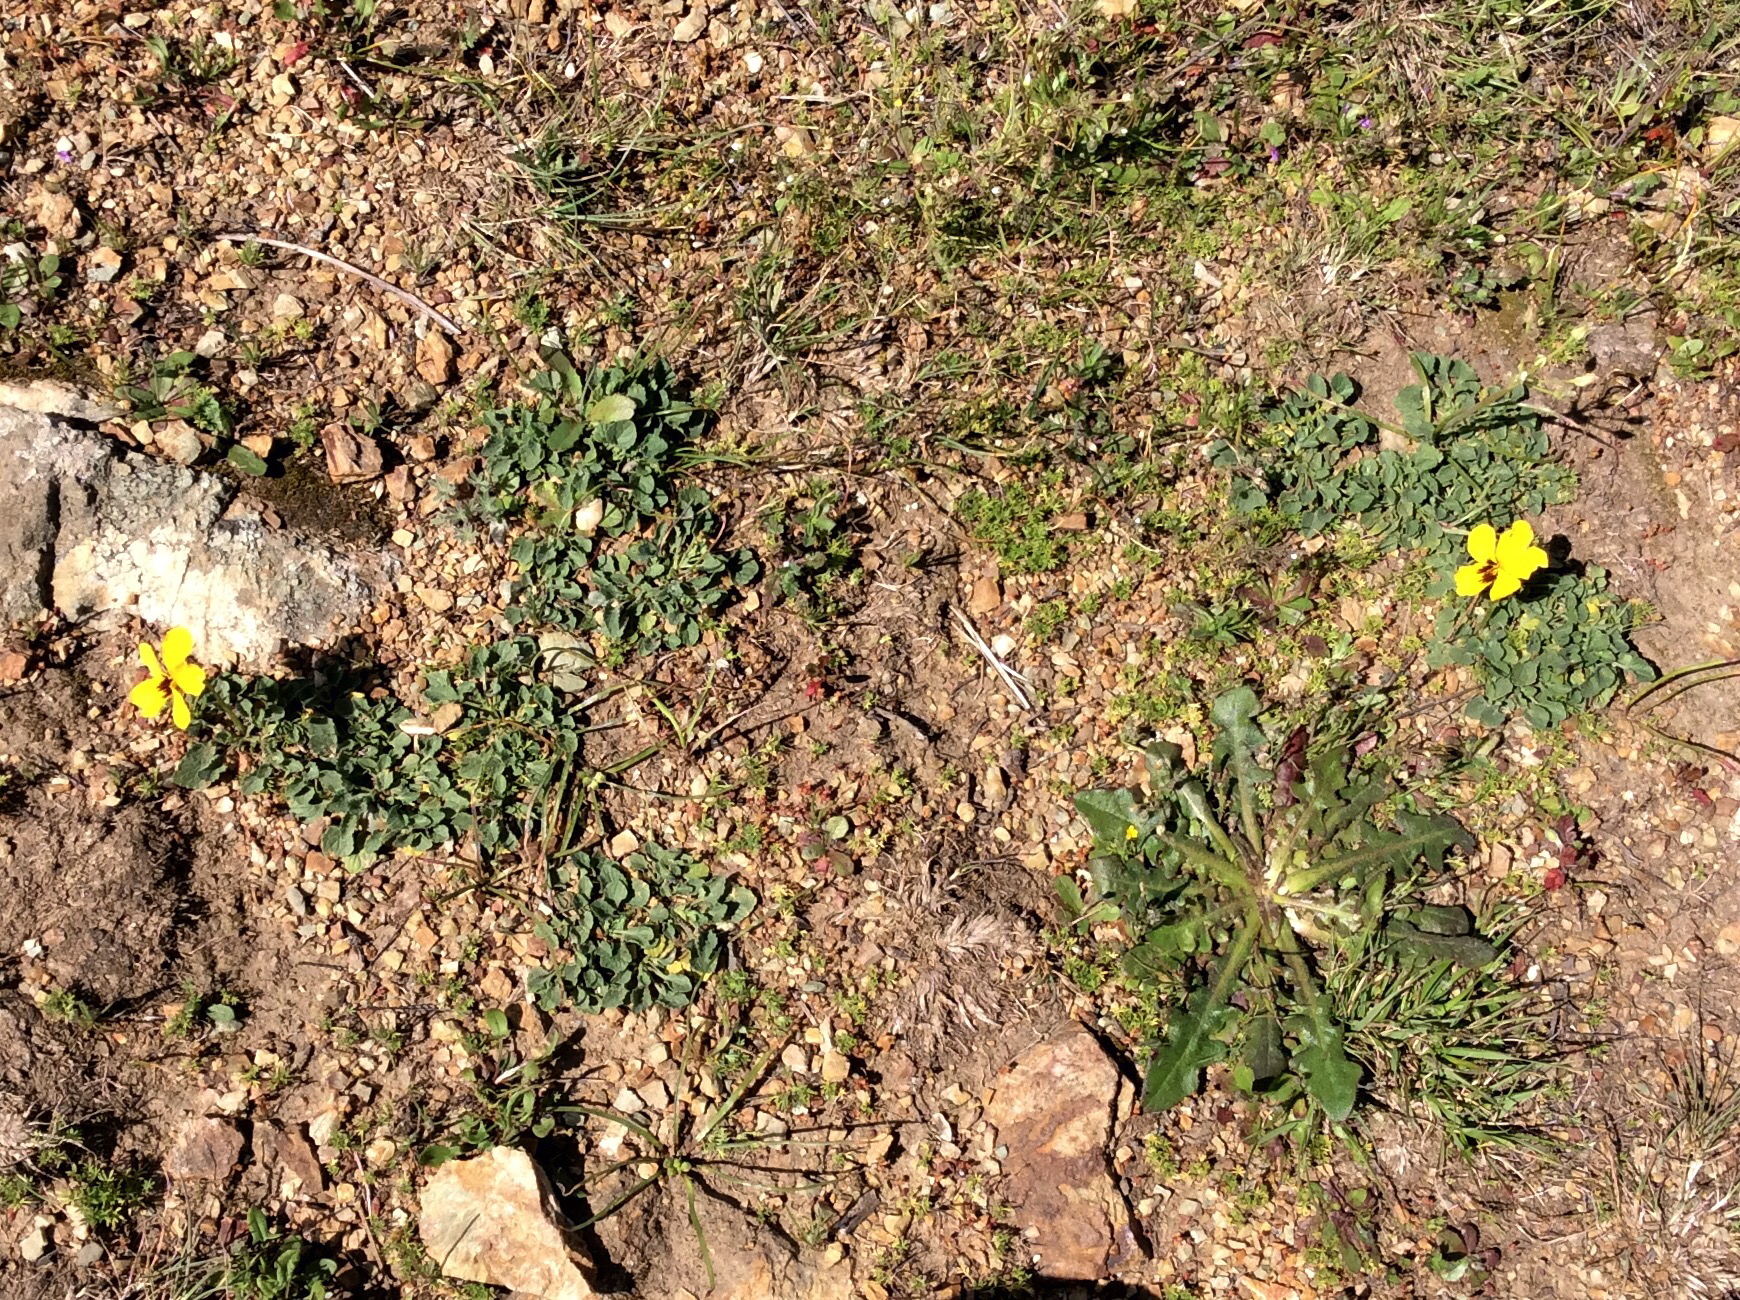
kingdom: Plantae
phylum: Tracheophyta
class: Magnoliopsida
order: Malpighiales
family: Violaceae
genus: Viola
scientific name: Viola pedunculata
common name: California golden violet
